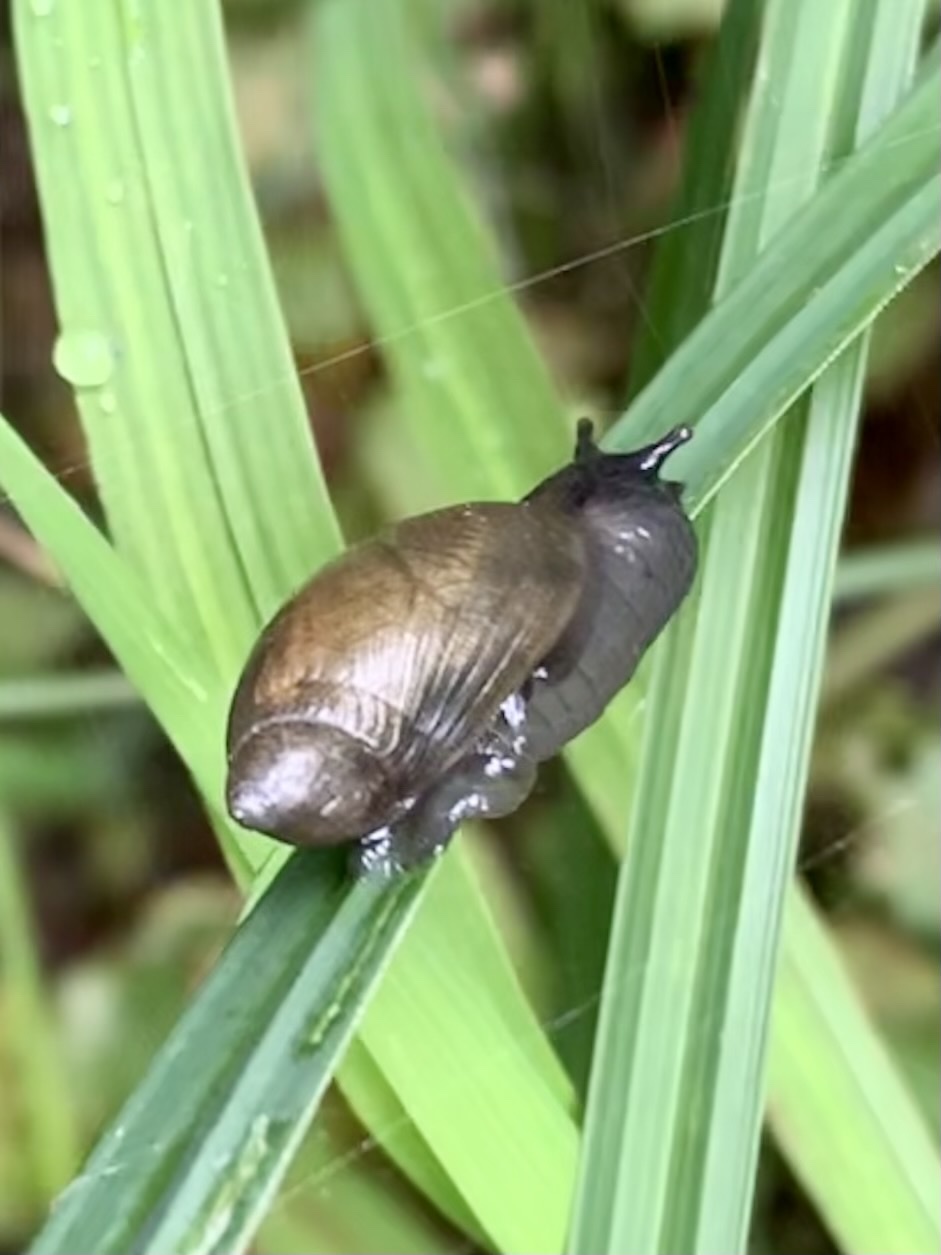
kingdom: Animalia
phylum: Mollusca
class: Gastropoda
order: Stylommatophora
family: Succineidae
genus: Succinea
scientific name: Succinea putris
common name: European ambersnail
